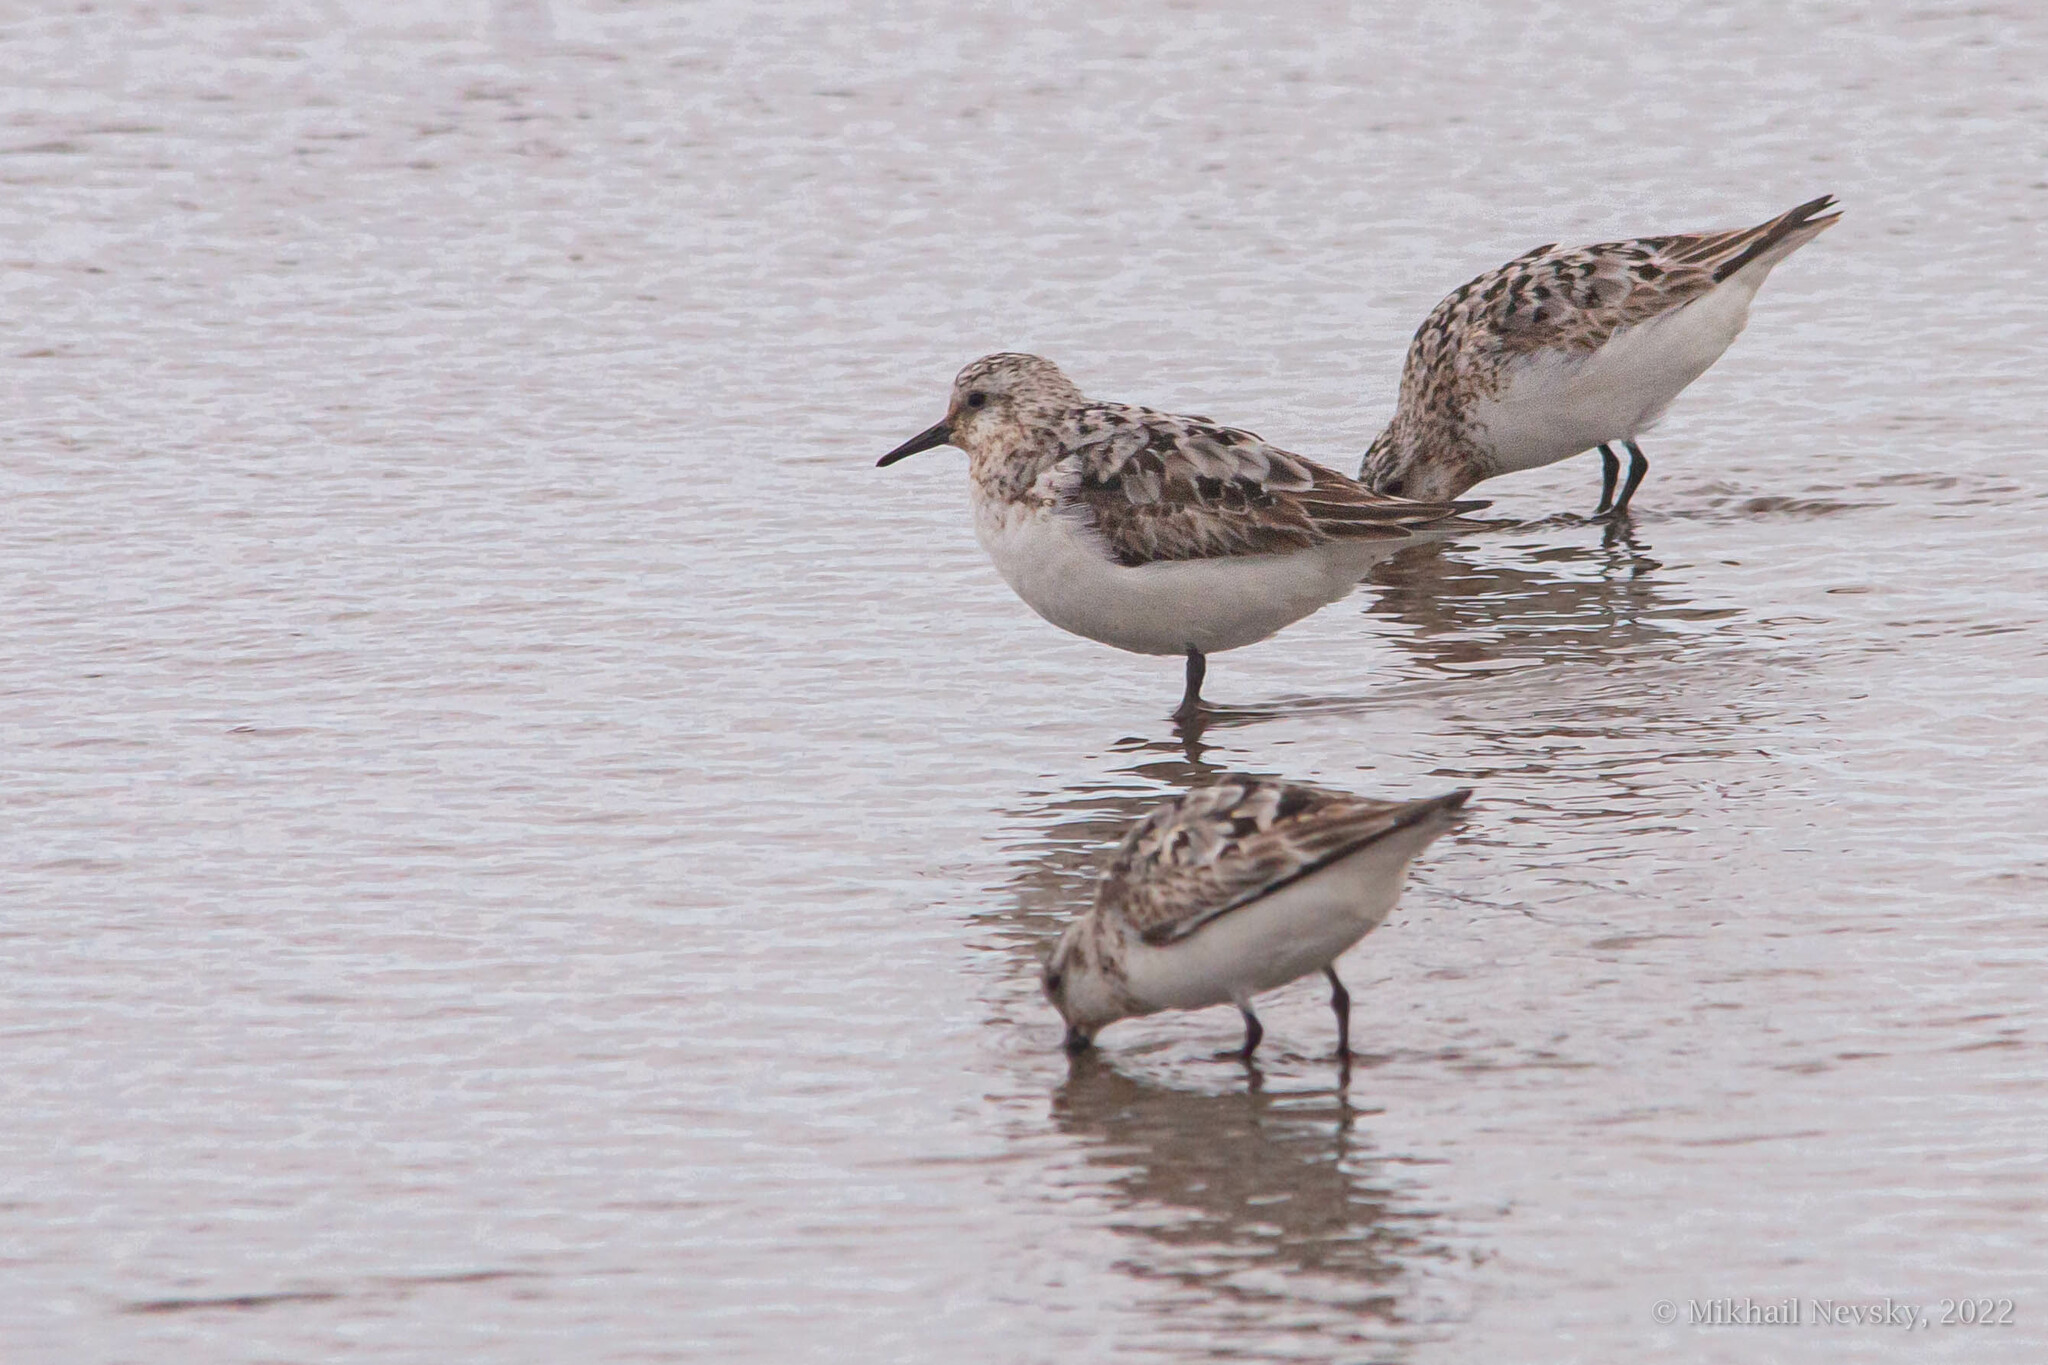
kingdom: Animalia
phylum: Chordata
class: Aves
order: Charadriiformes
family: Scolopacidae
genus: Calidris
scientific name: Calidris alba
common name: Sanderling
